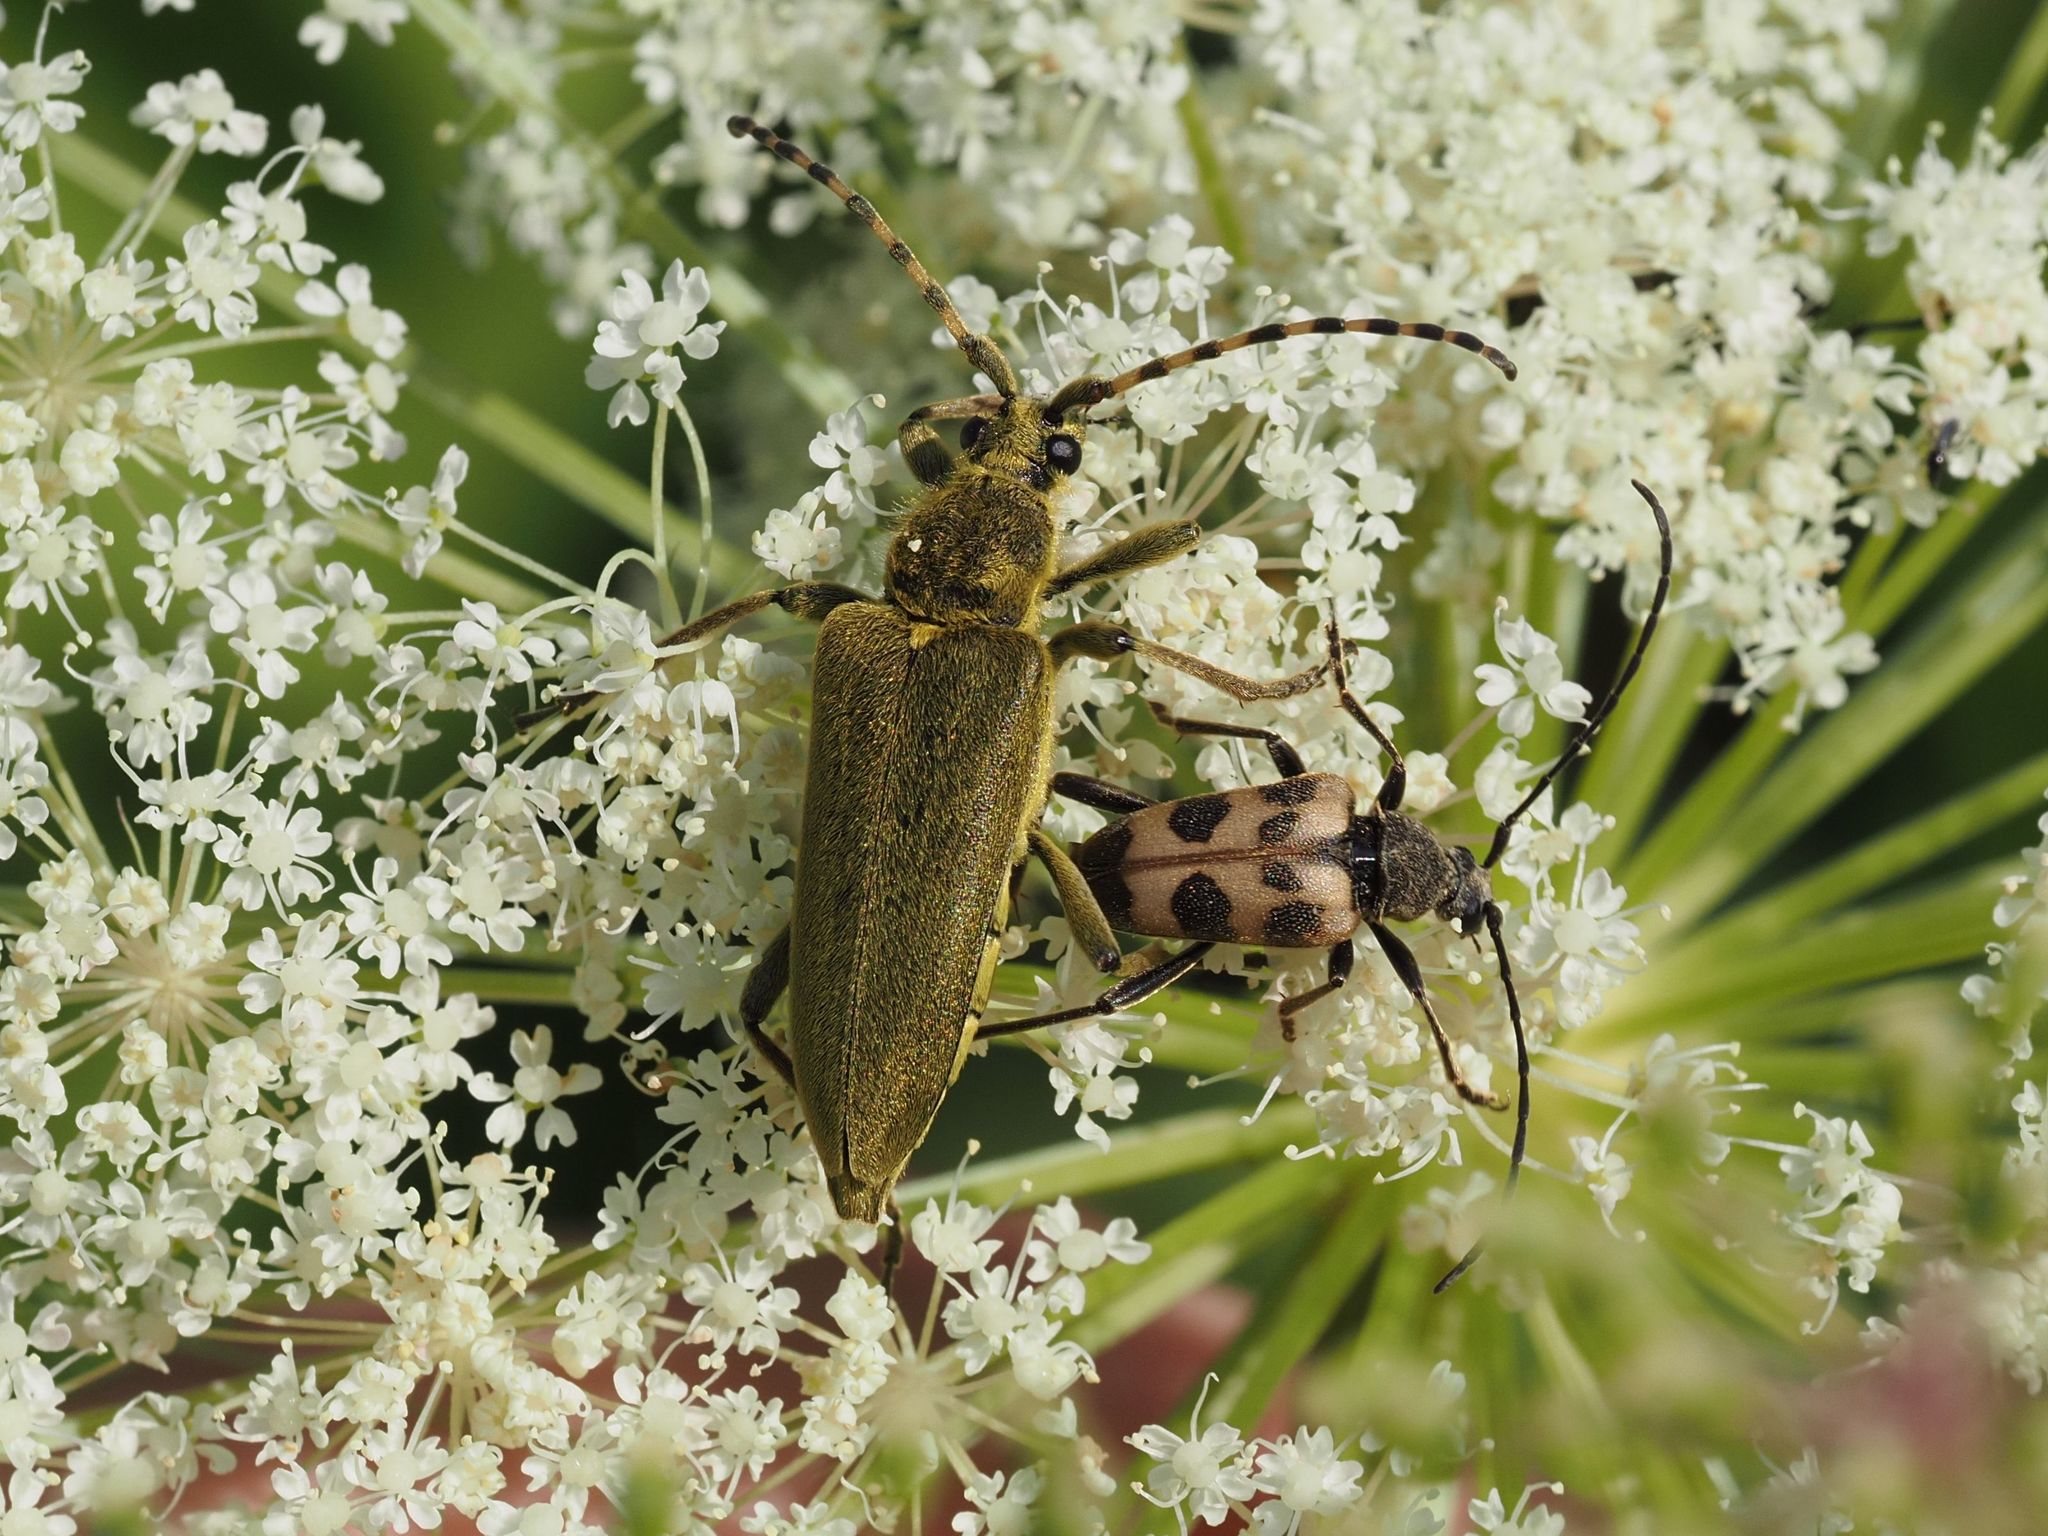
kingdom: Animalia
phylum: Arthropoda
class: Insecta
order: Coleoptera
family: Cerambycidae
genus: Lepturobosca
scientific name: Lepturobosca virens
